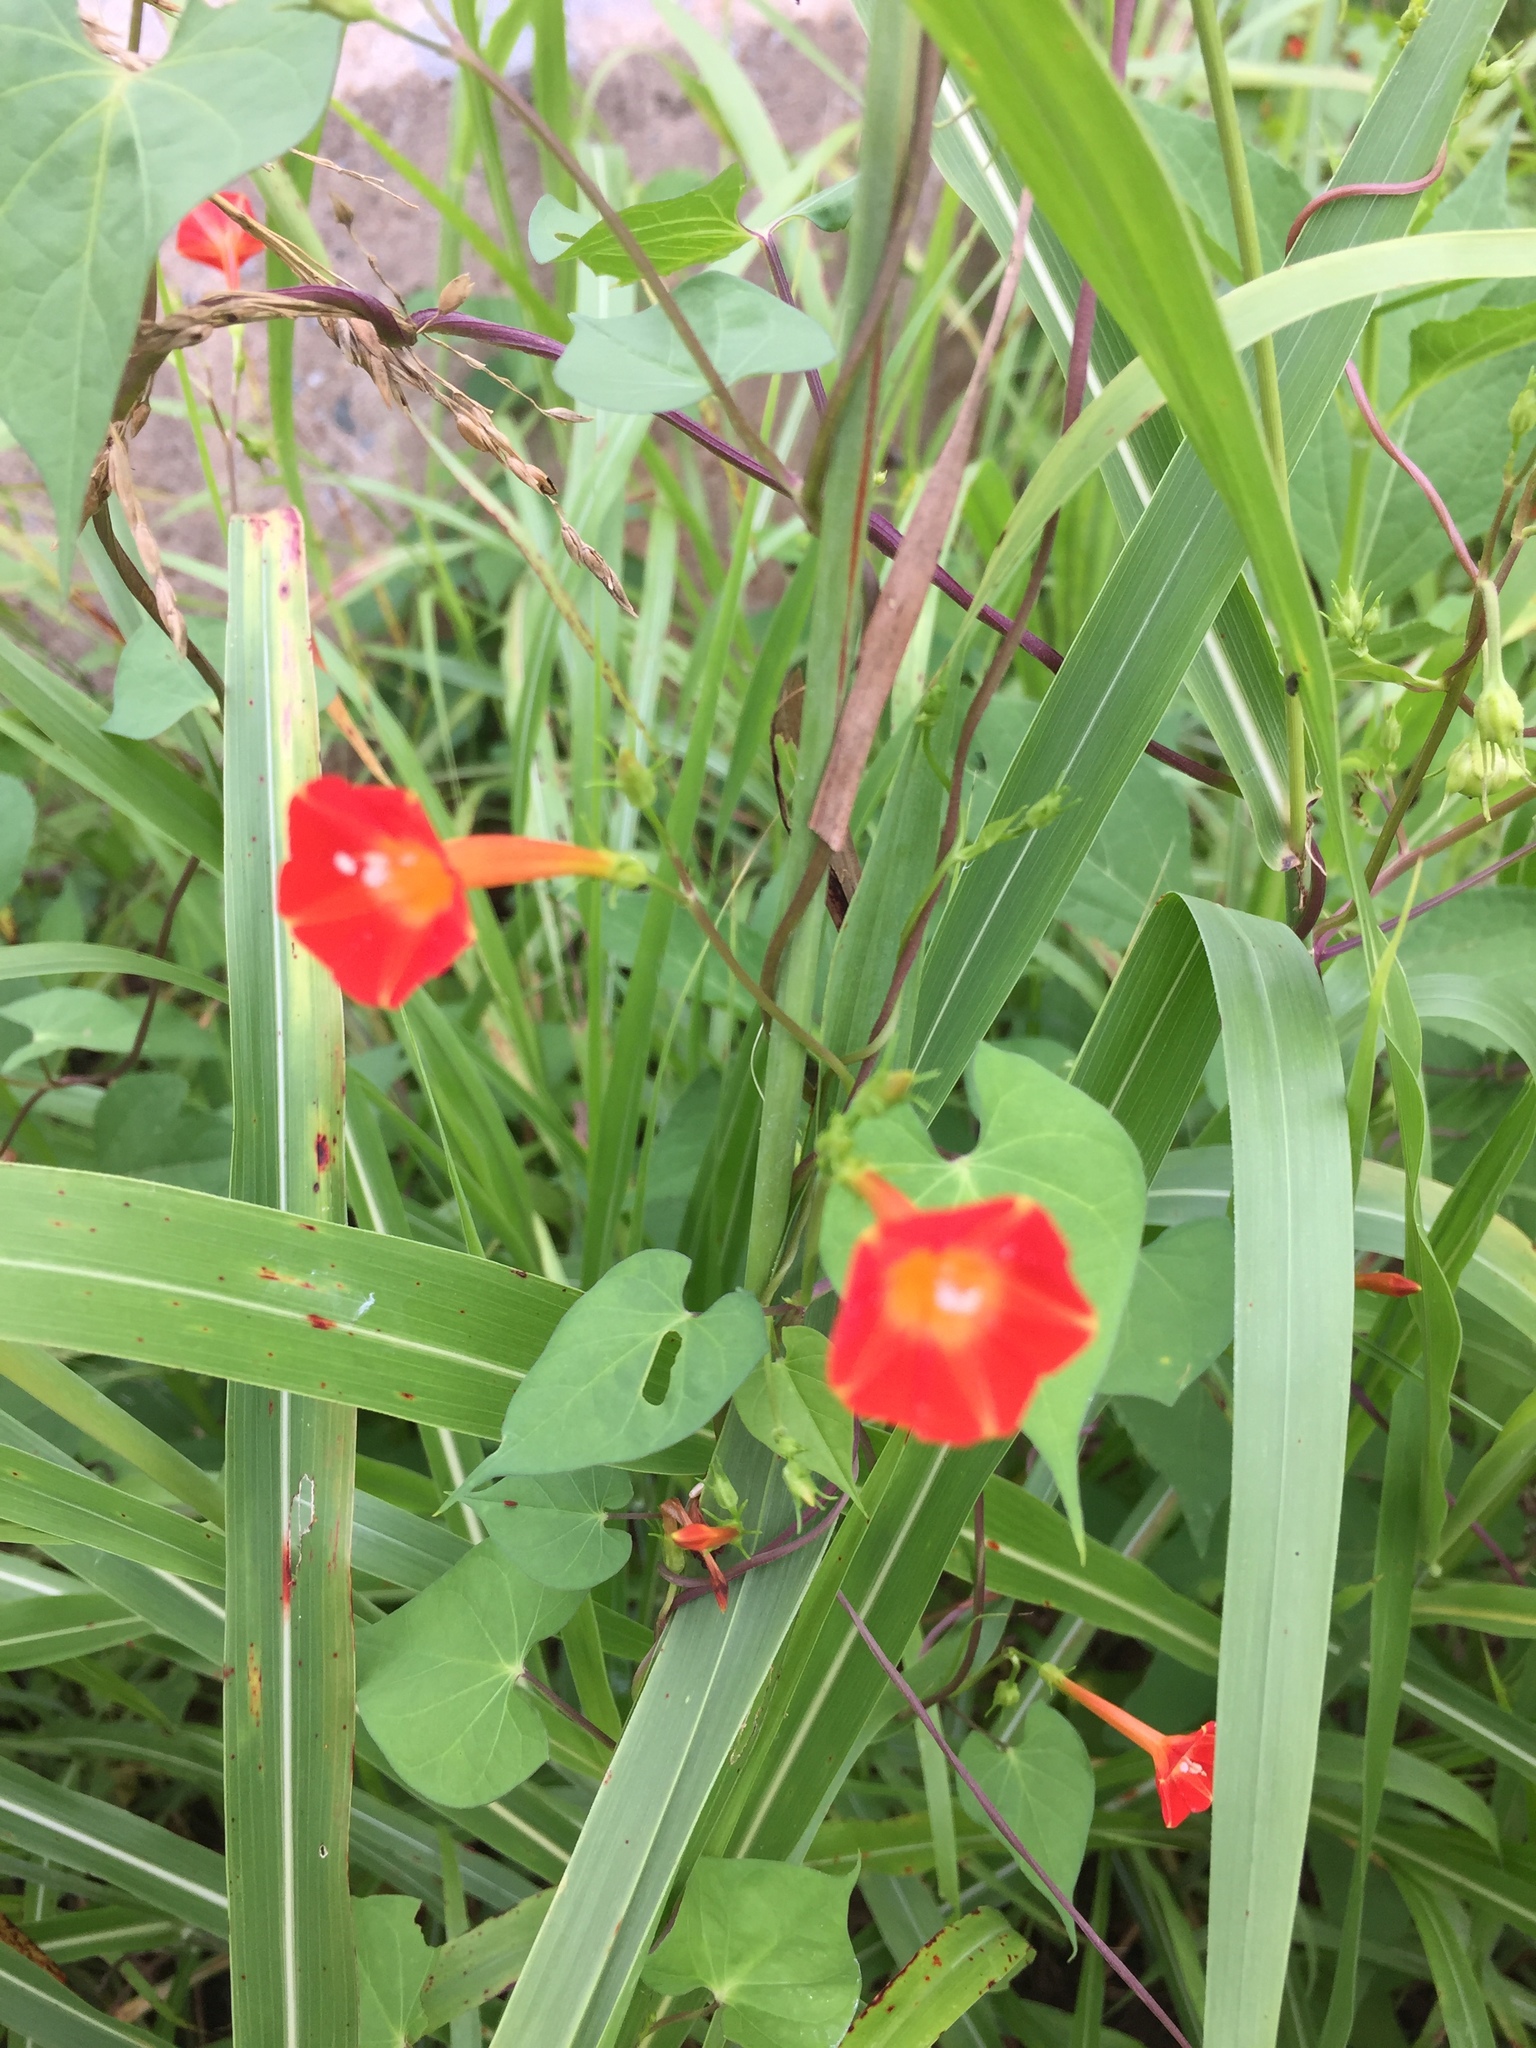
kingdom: Plantae
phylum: Tracheophyta
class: Magnoliopsida
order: Solanales
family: Convolvulaceae
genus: Ipomoea
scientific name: Ipomoea coccinea
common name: Red morning-glory
